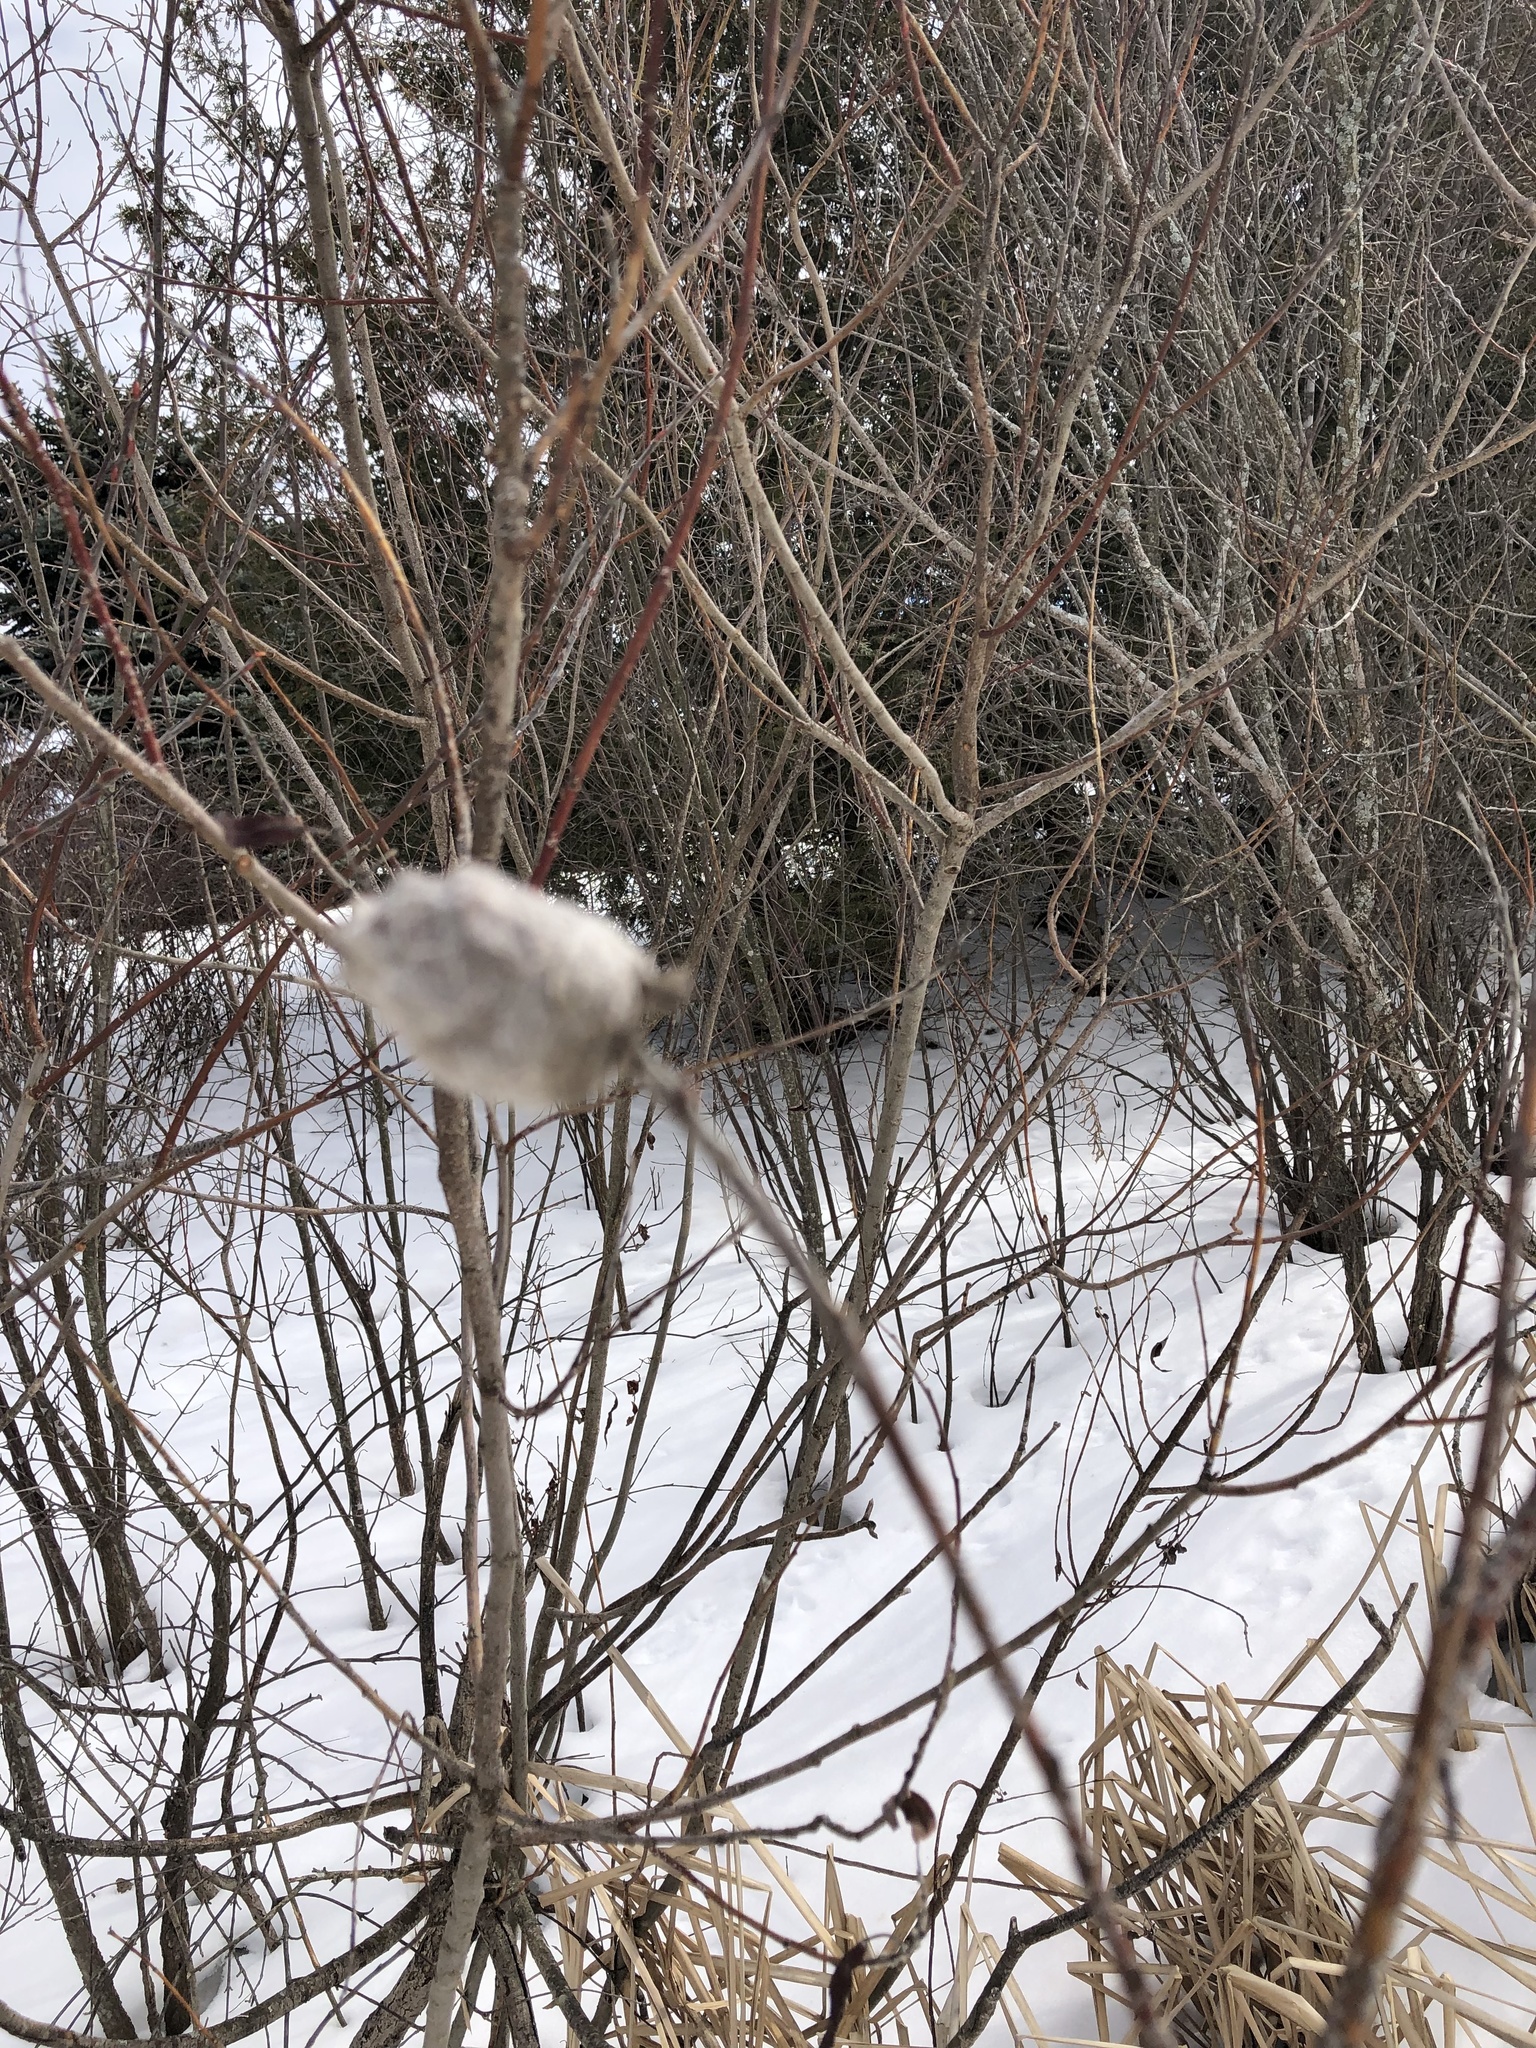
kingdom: Animalia
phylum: Arthropoda
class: Insecta
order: Diptera
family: Cecidomyiidae
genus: Rabdophaga
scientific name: Rabdophaga strobiloides
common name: Willow pinecone gall midge
